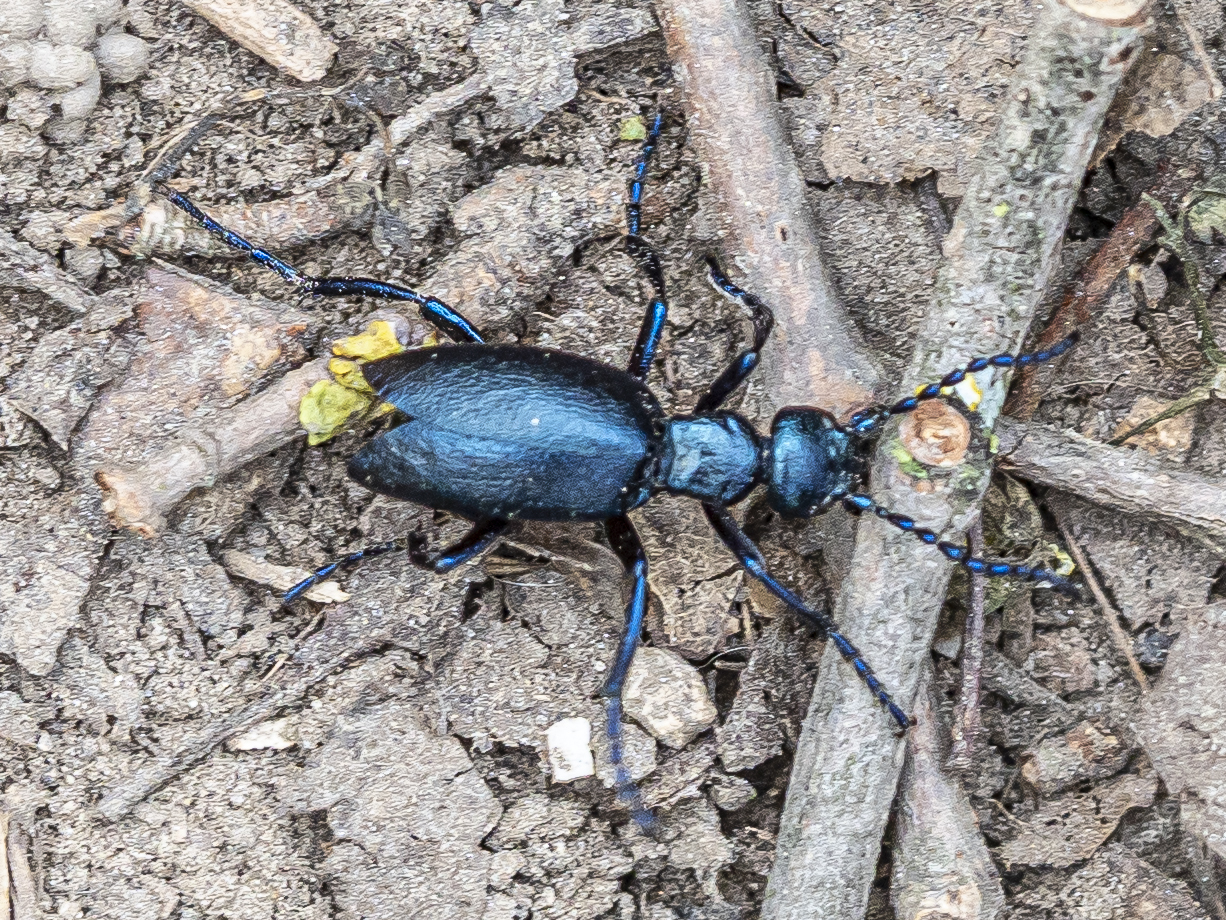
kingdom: Animalia
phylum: Arthropoda
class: Insecta
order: Coleoptera
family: Meloidae
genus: Meloe
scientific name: Meloe violaceus
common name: Violet oil-beetle
